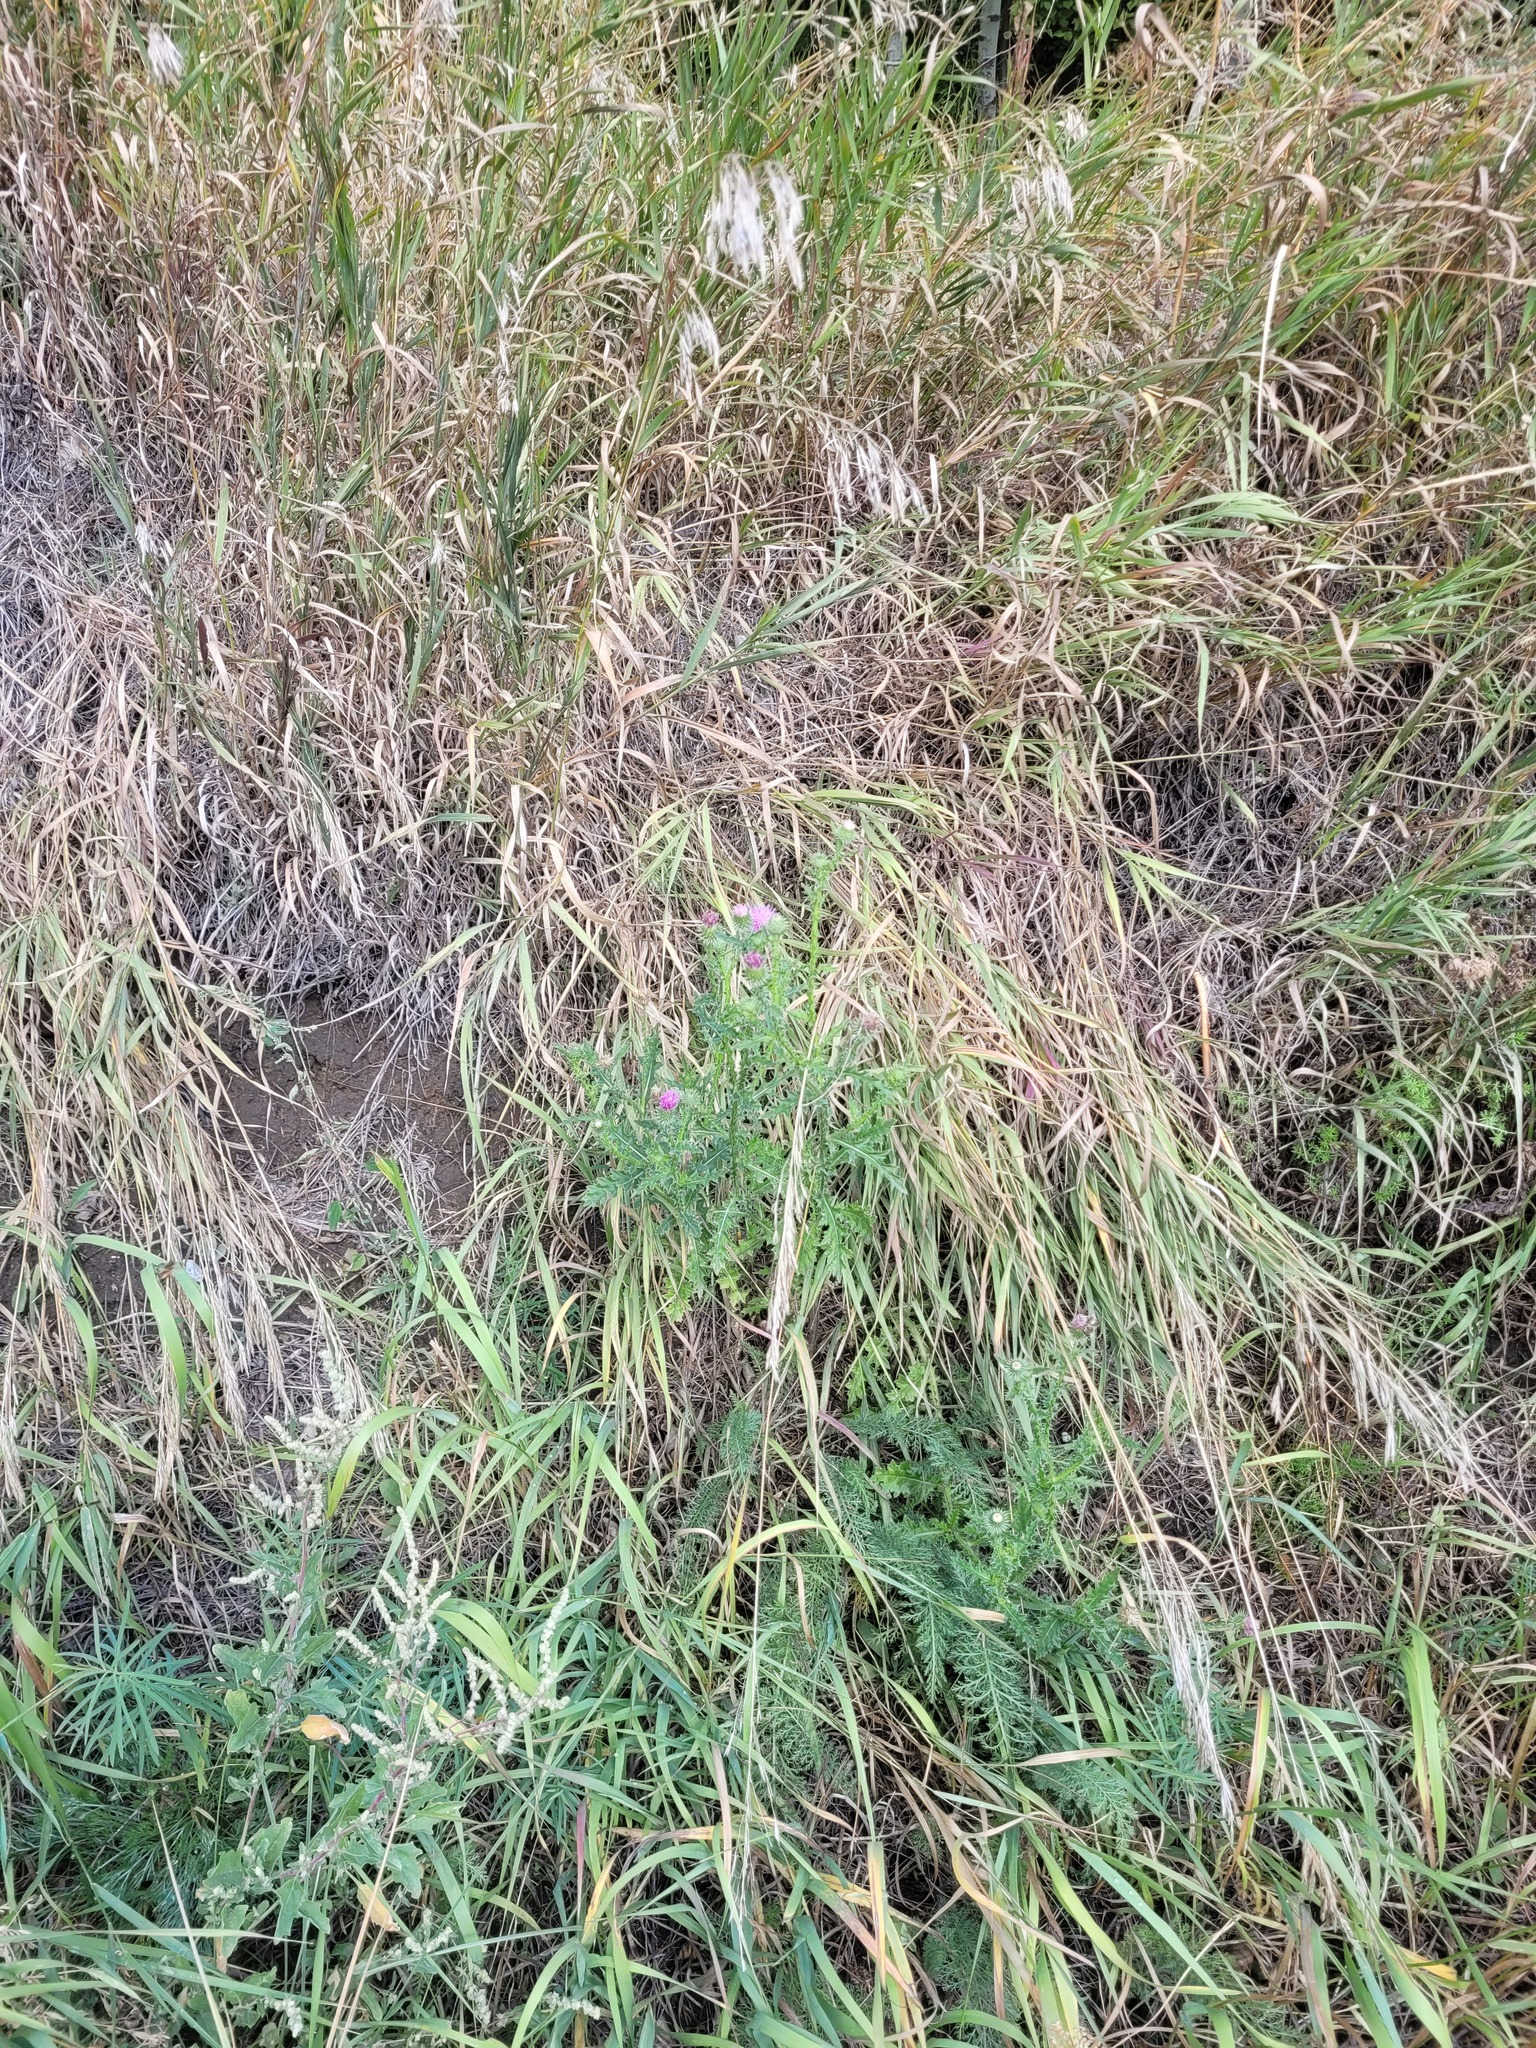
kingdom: Plantae
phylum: Tracheophyta
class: Magnoliopsida
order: Asterales
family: Asteraceae
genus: Carduus
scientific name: Carduus acanthoides
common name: Plumeless thistle
